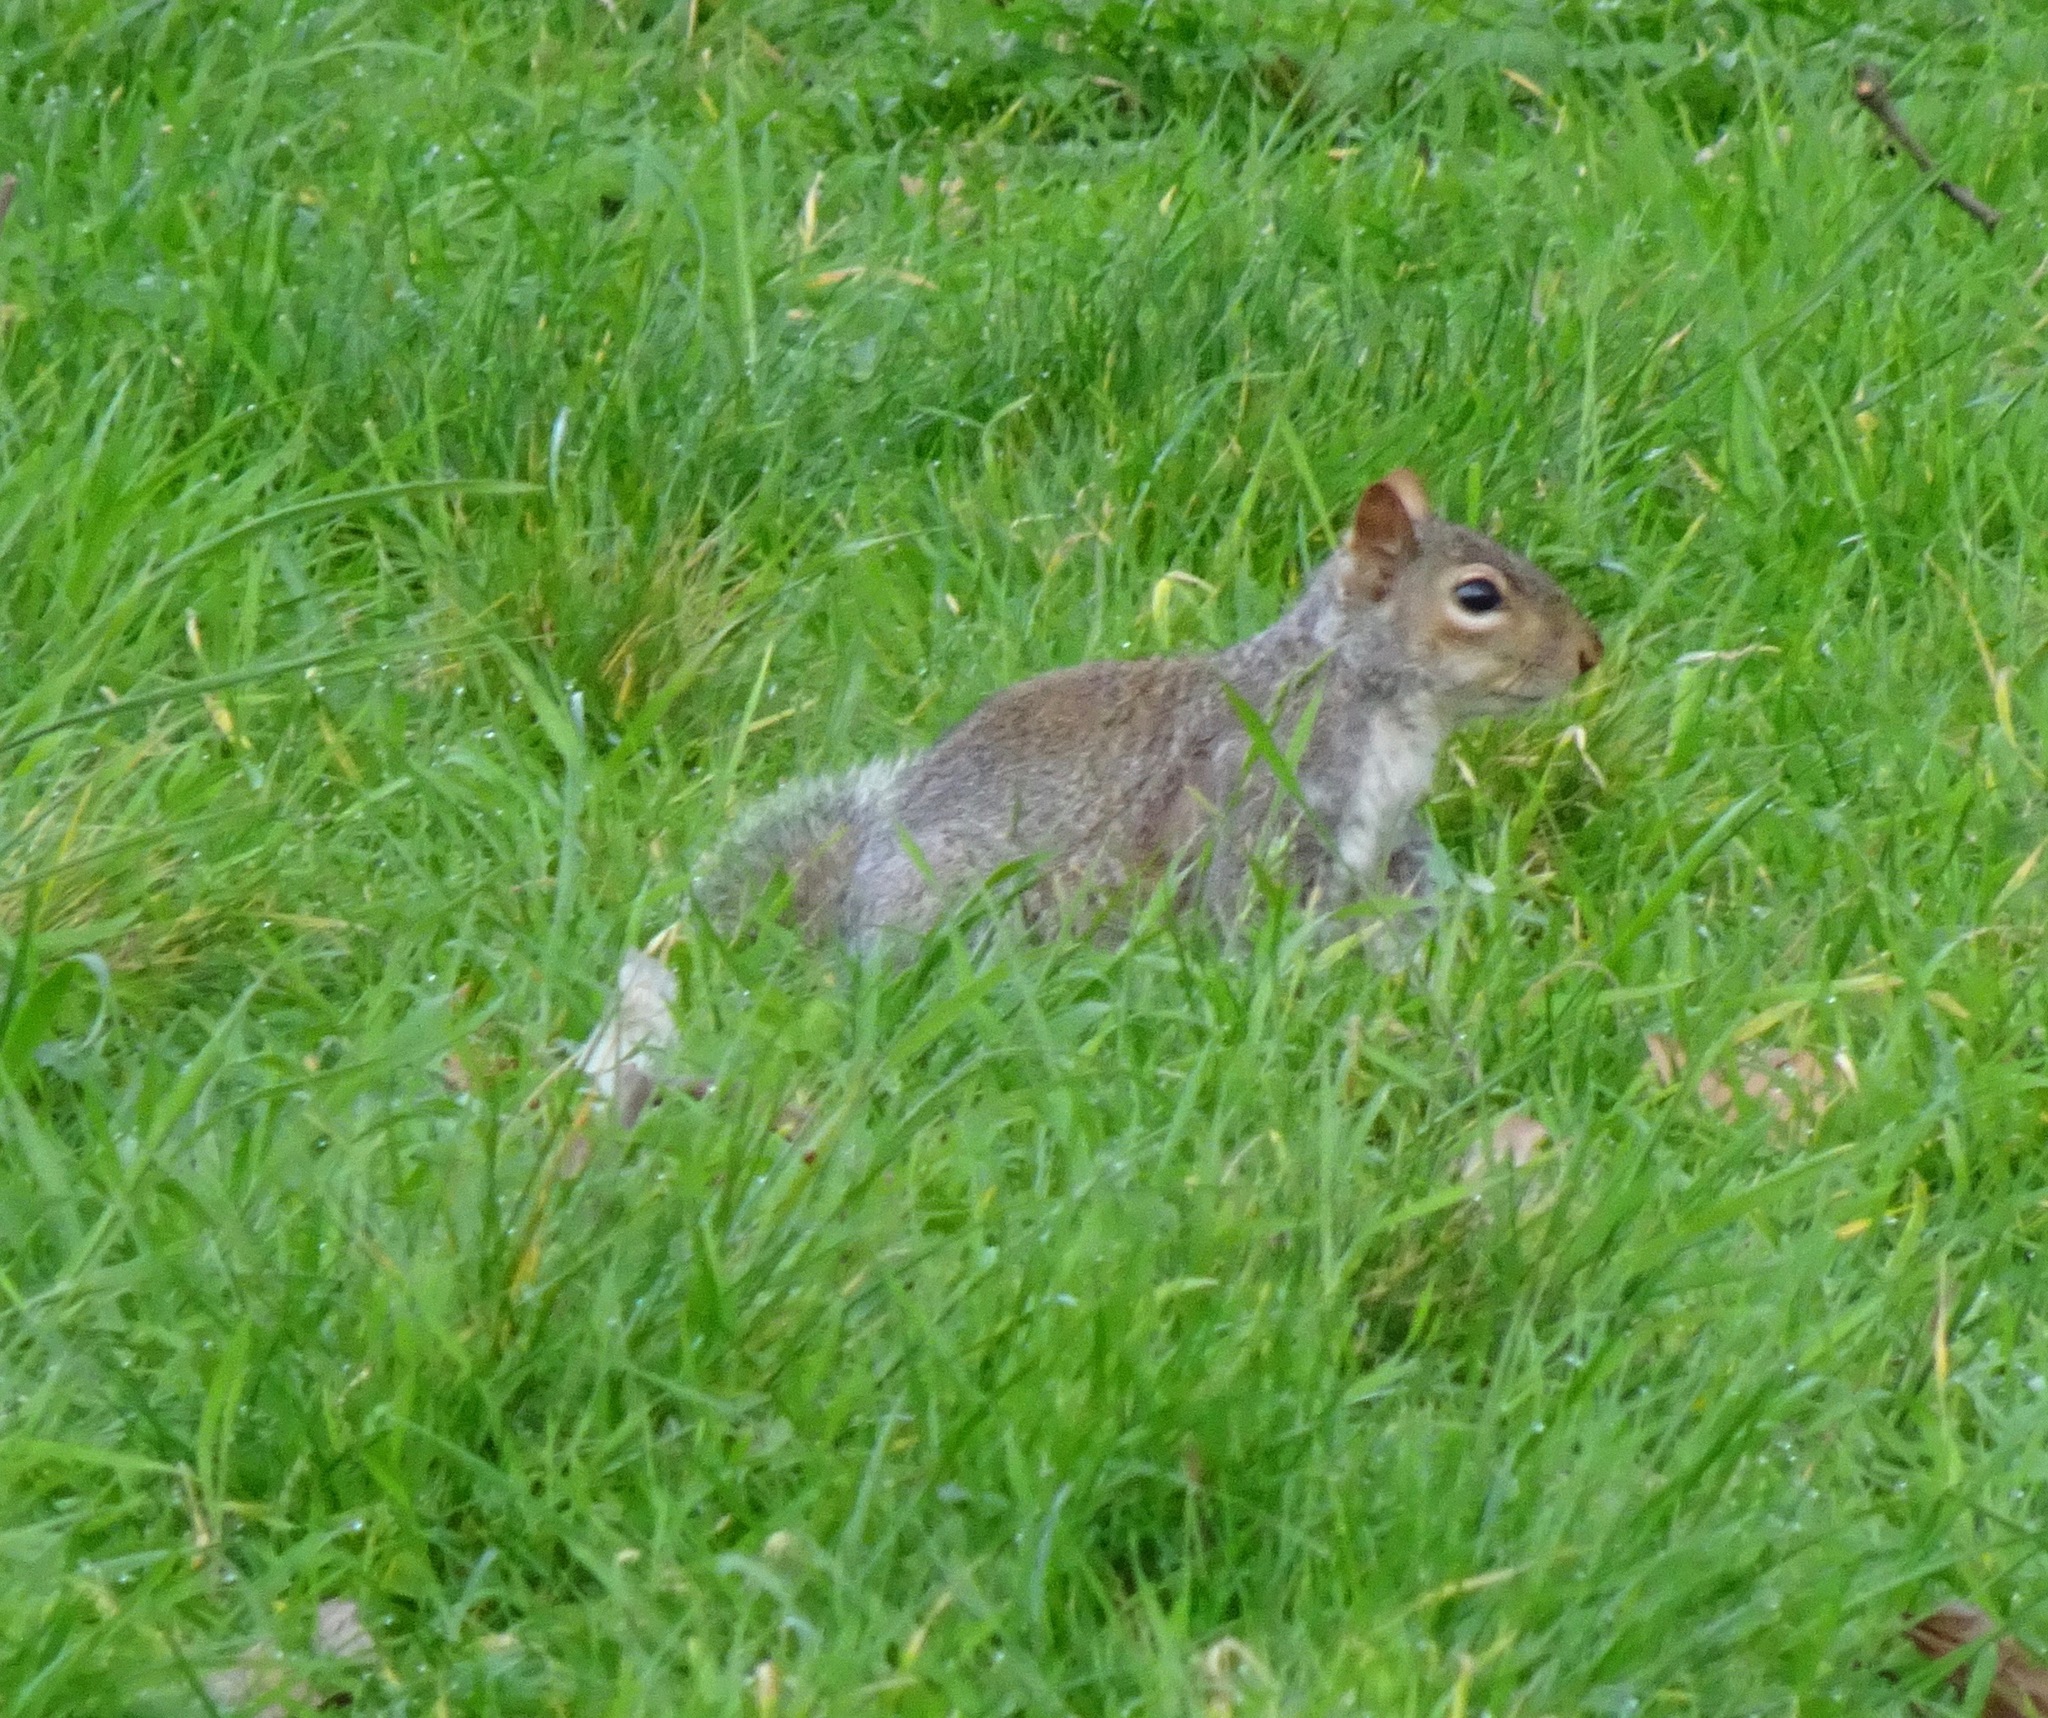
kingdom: Animalia
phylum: Chordata
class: Mammalia
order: Rodentia
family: Sciuridae
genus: Sciurus
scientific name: Sciurus carolinensis
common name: Eastern gray squirrel
